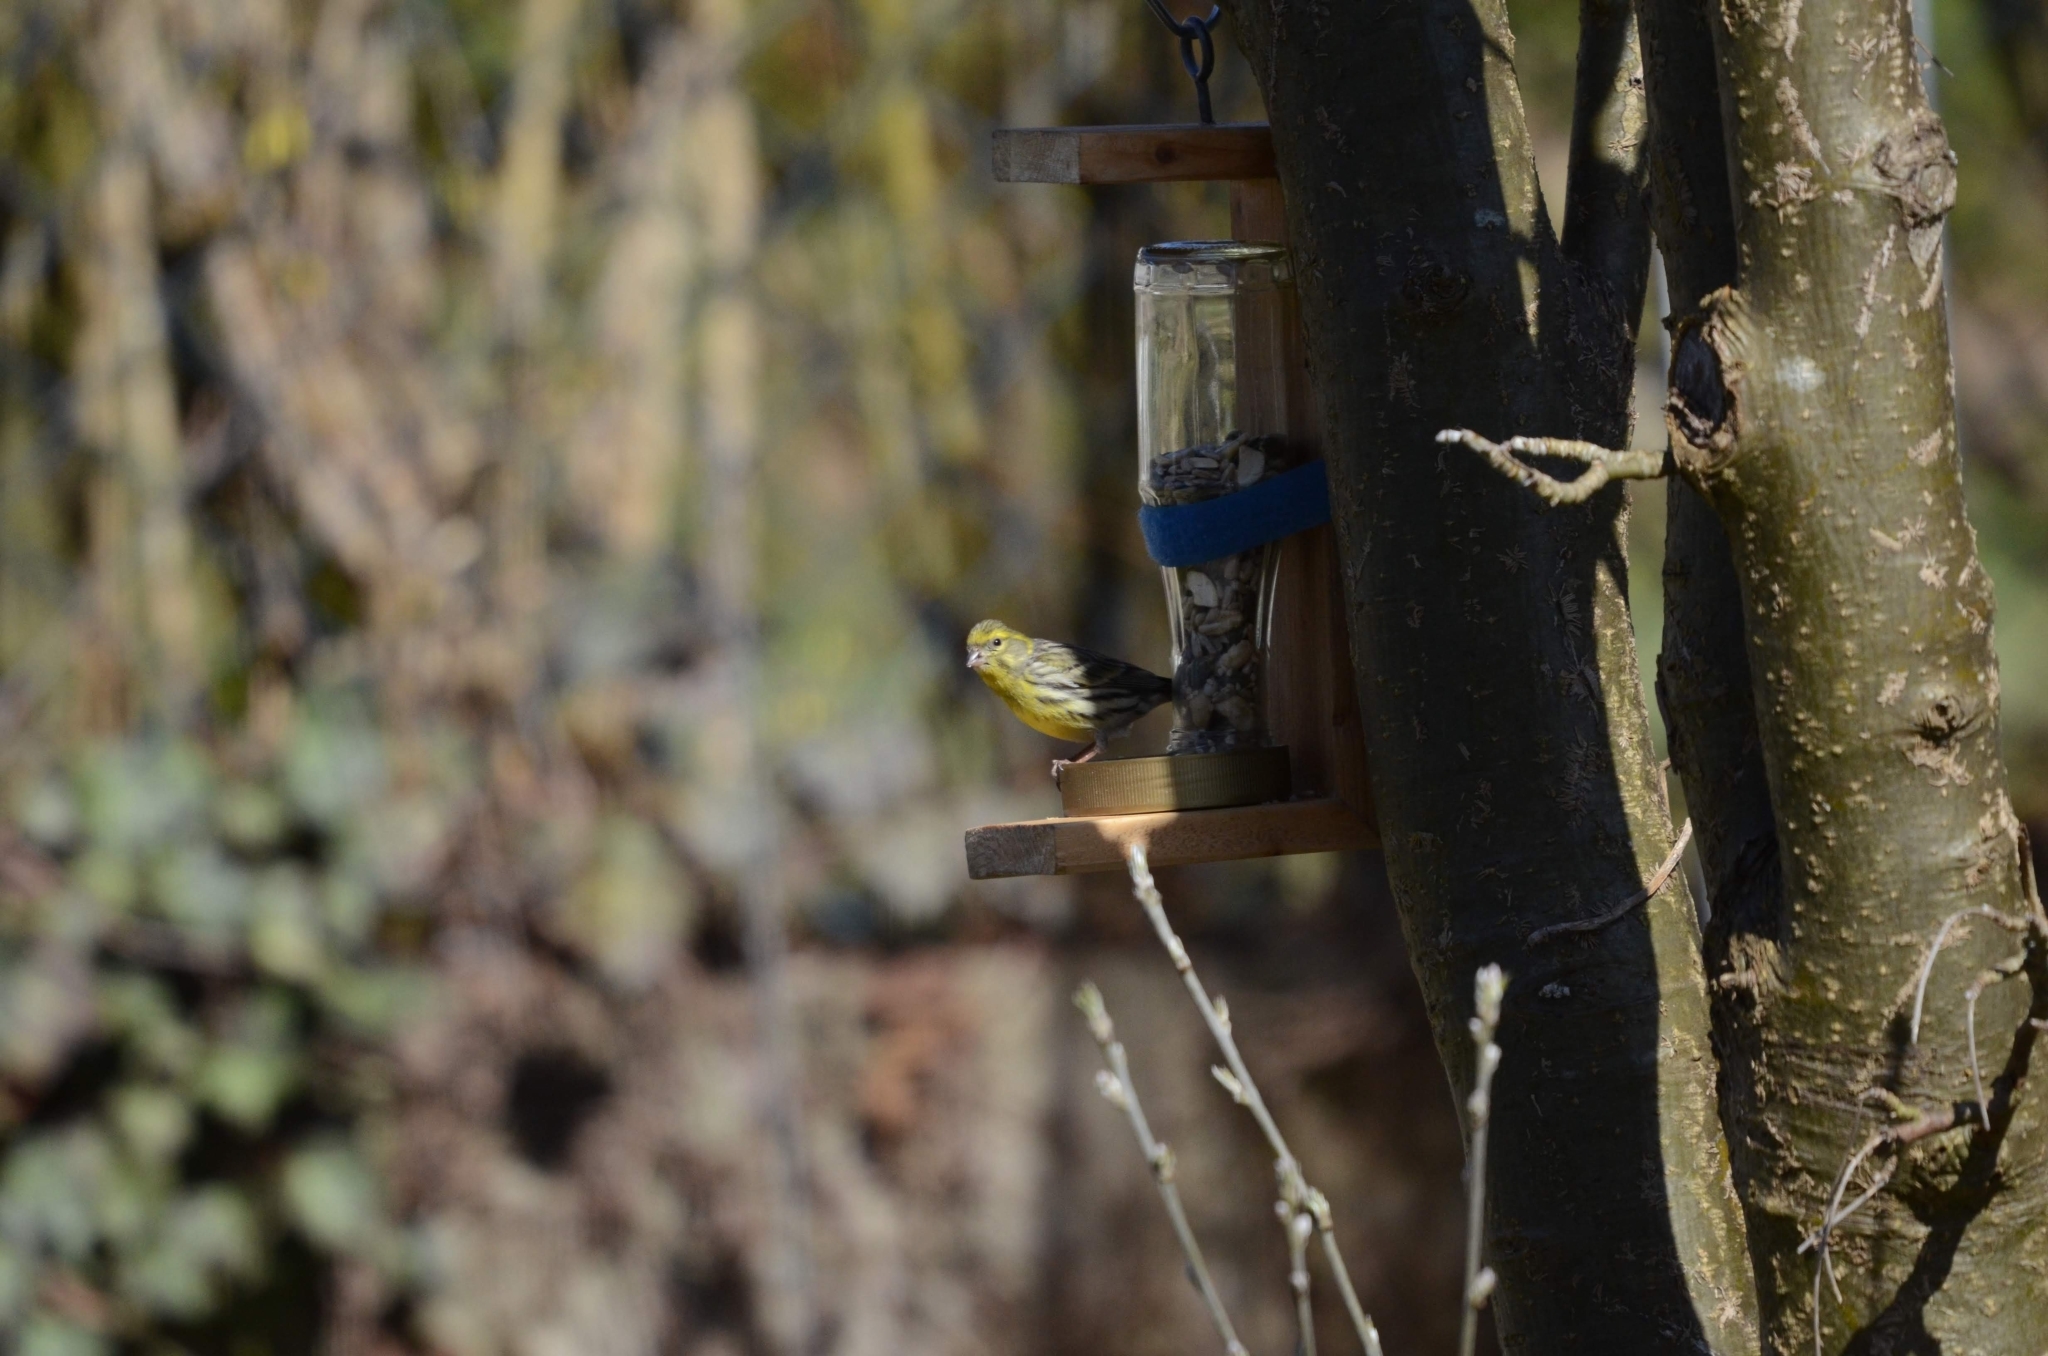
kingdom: Animalia
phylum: Chordata
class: Aves
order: Passeriformes
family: Fringillidae
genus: Serinus
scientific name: Serinus serinus
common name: European serin
